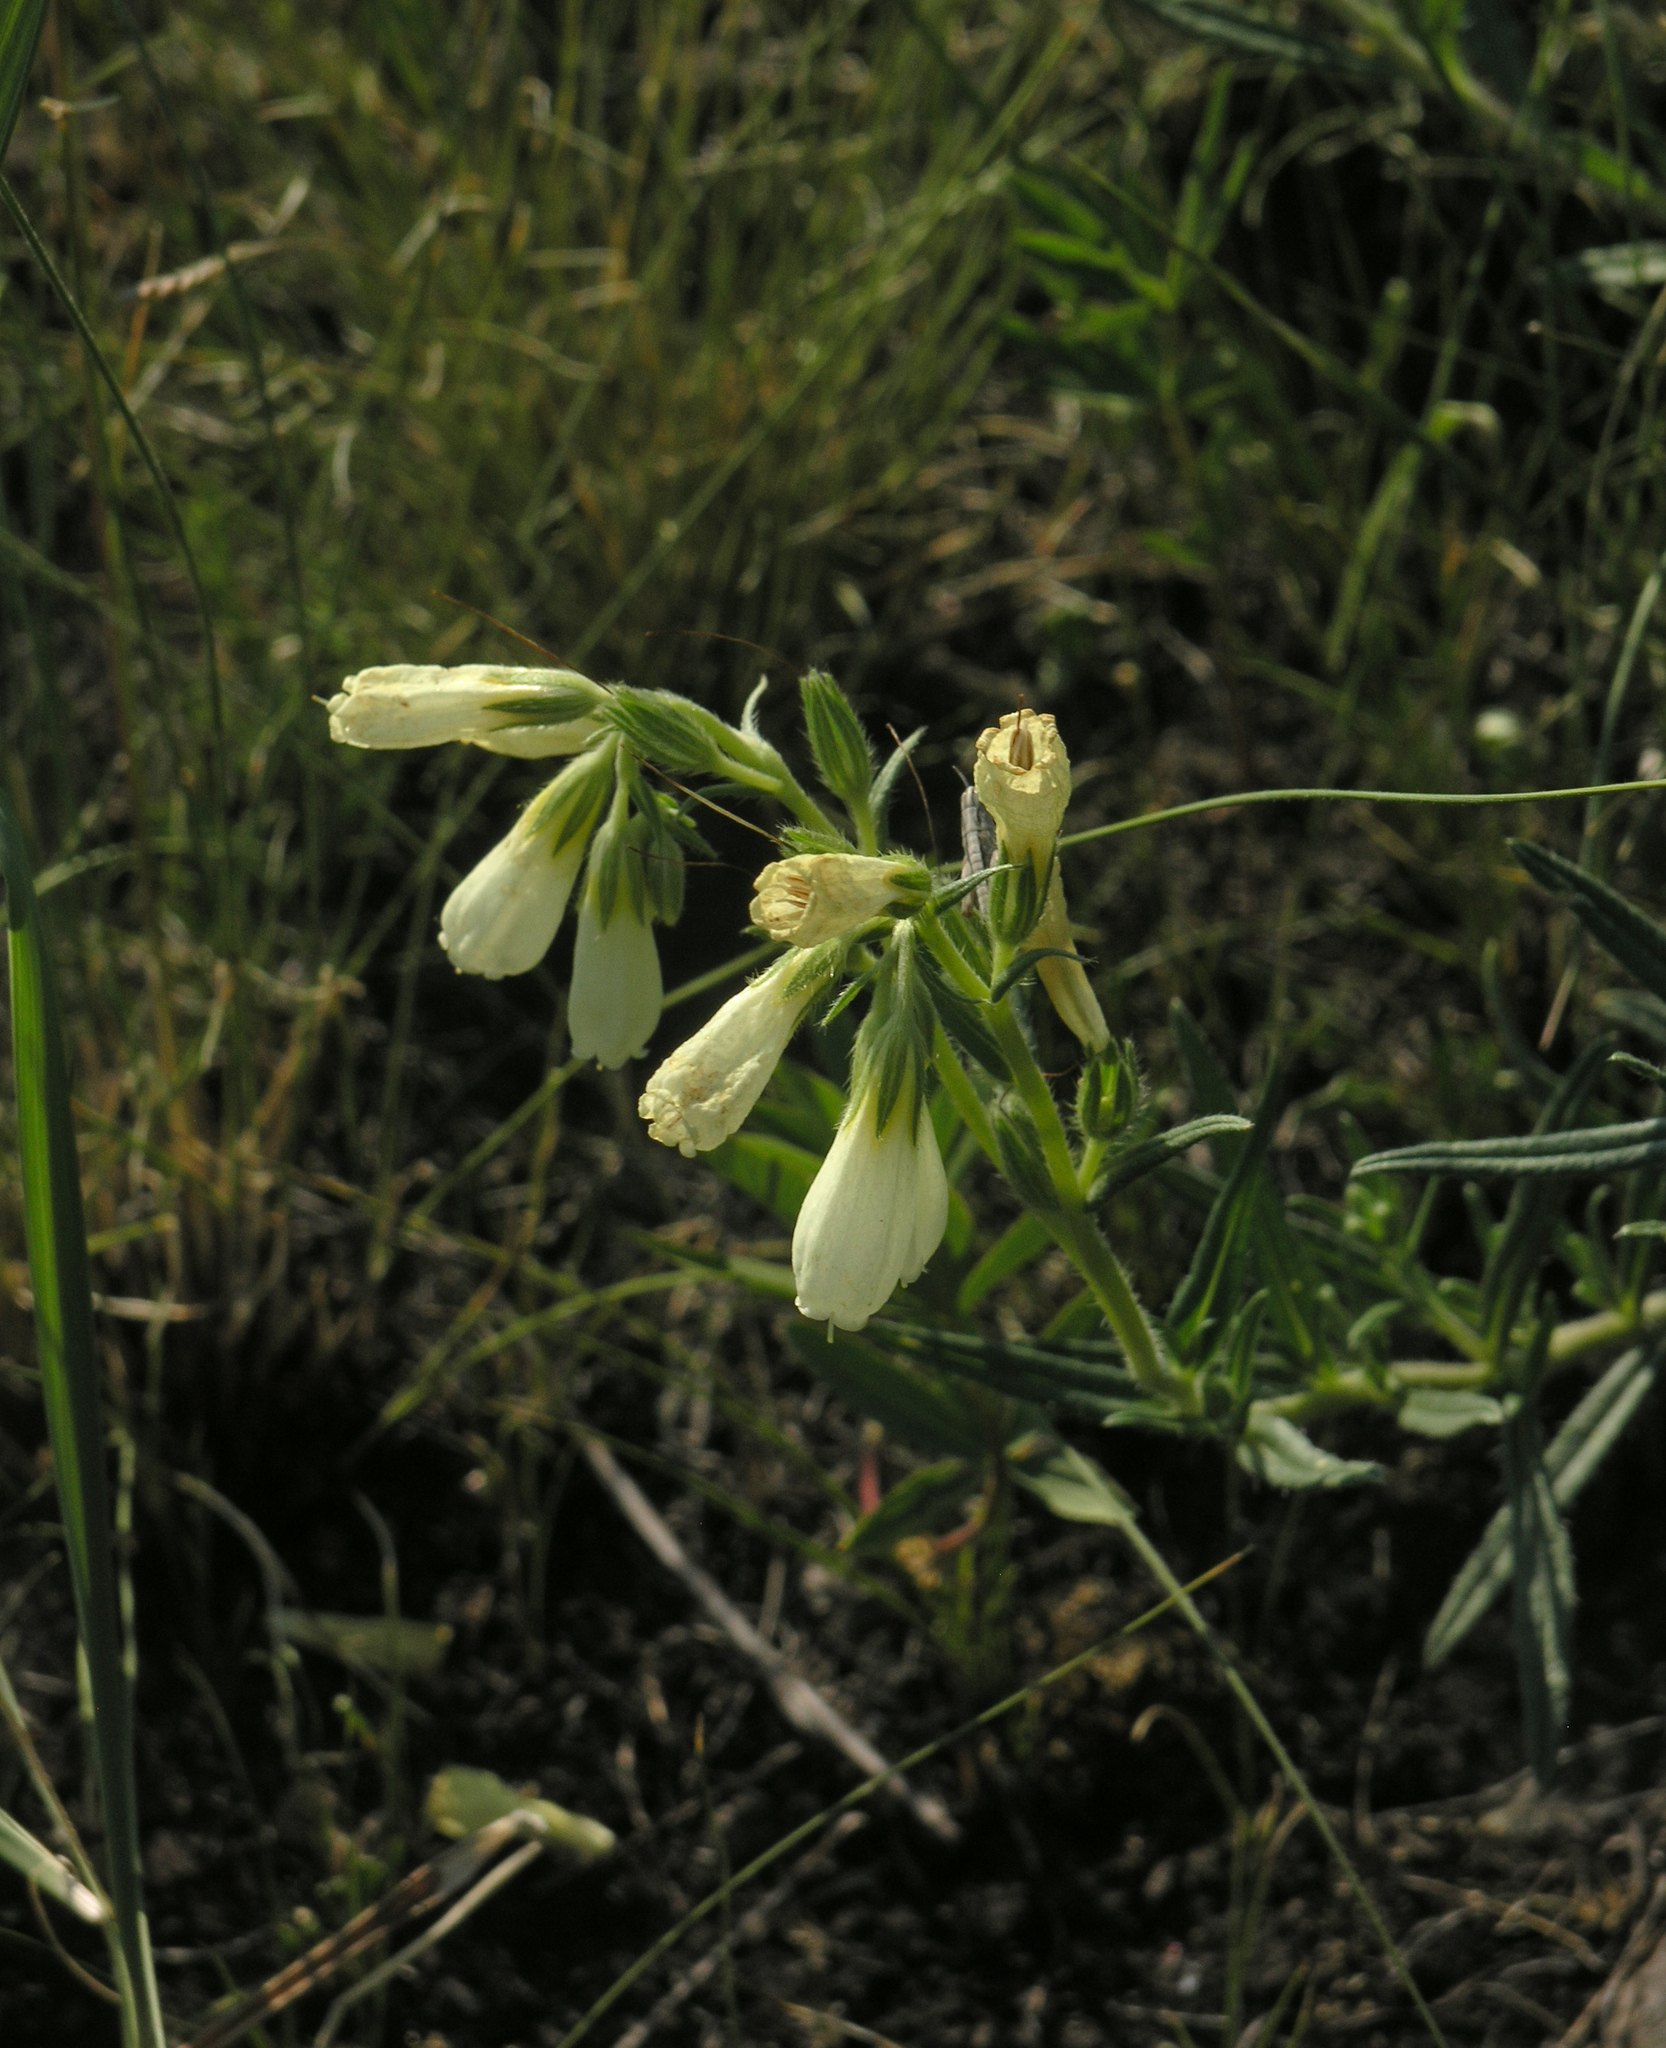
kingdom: Plantae
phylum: Tracheophyta
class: Magnoliopsida
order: Boraginales
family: Boraginaceae
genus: Onosma
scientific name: Onosma simplicissima
